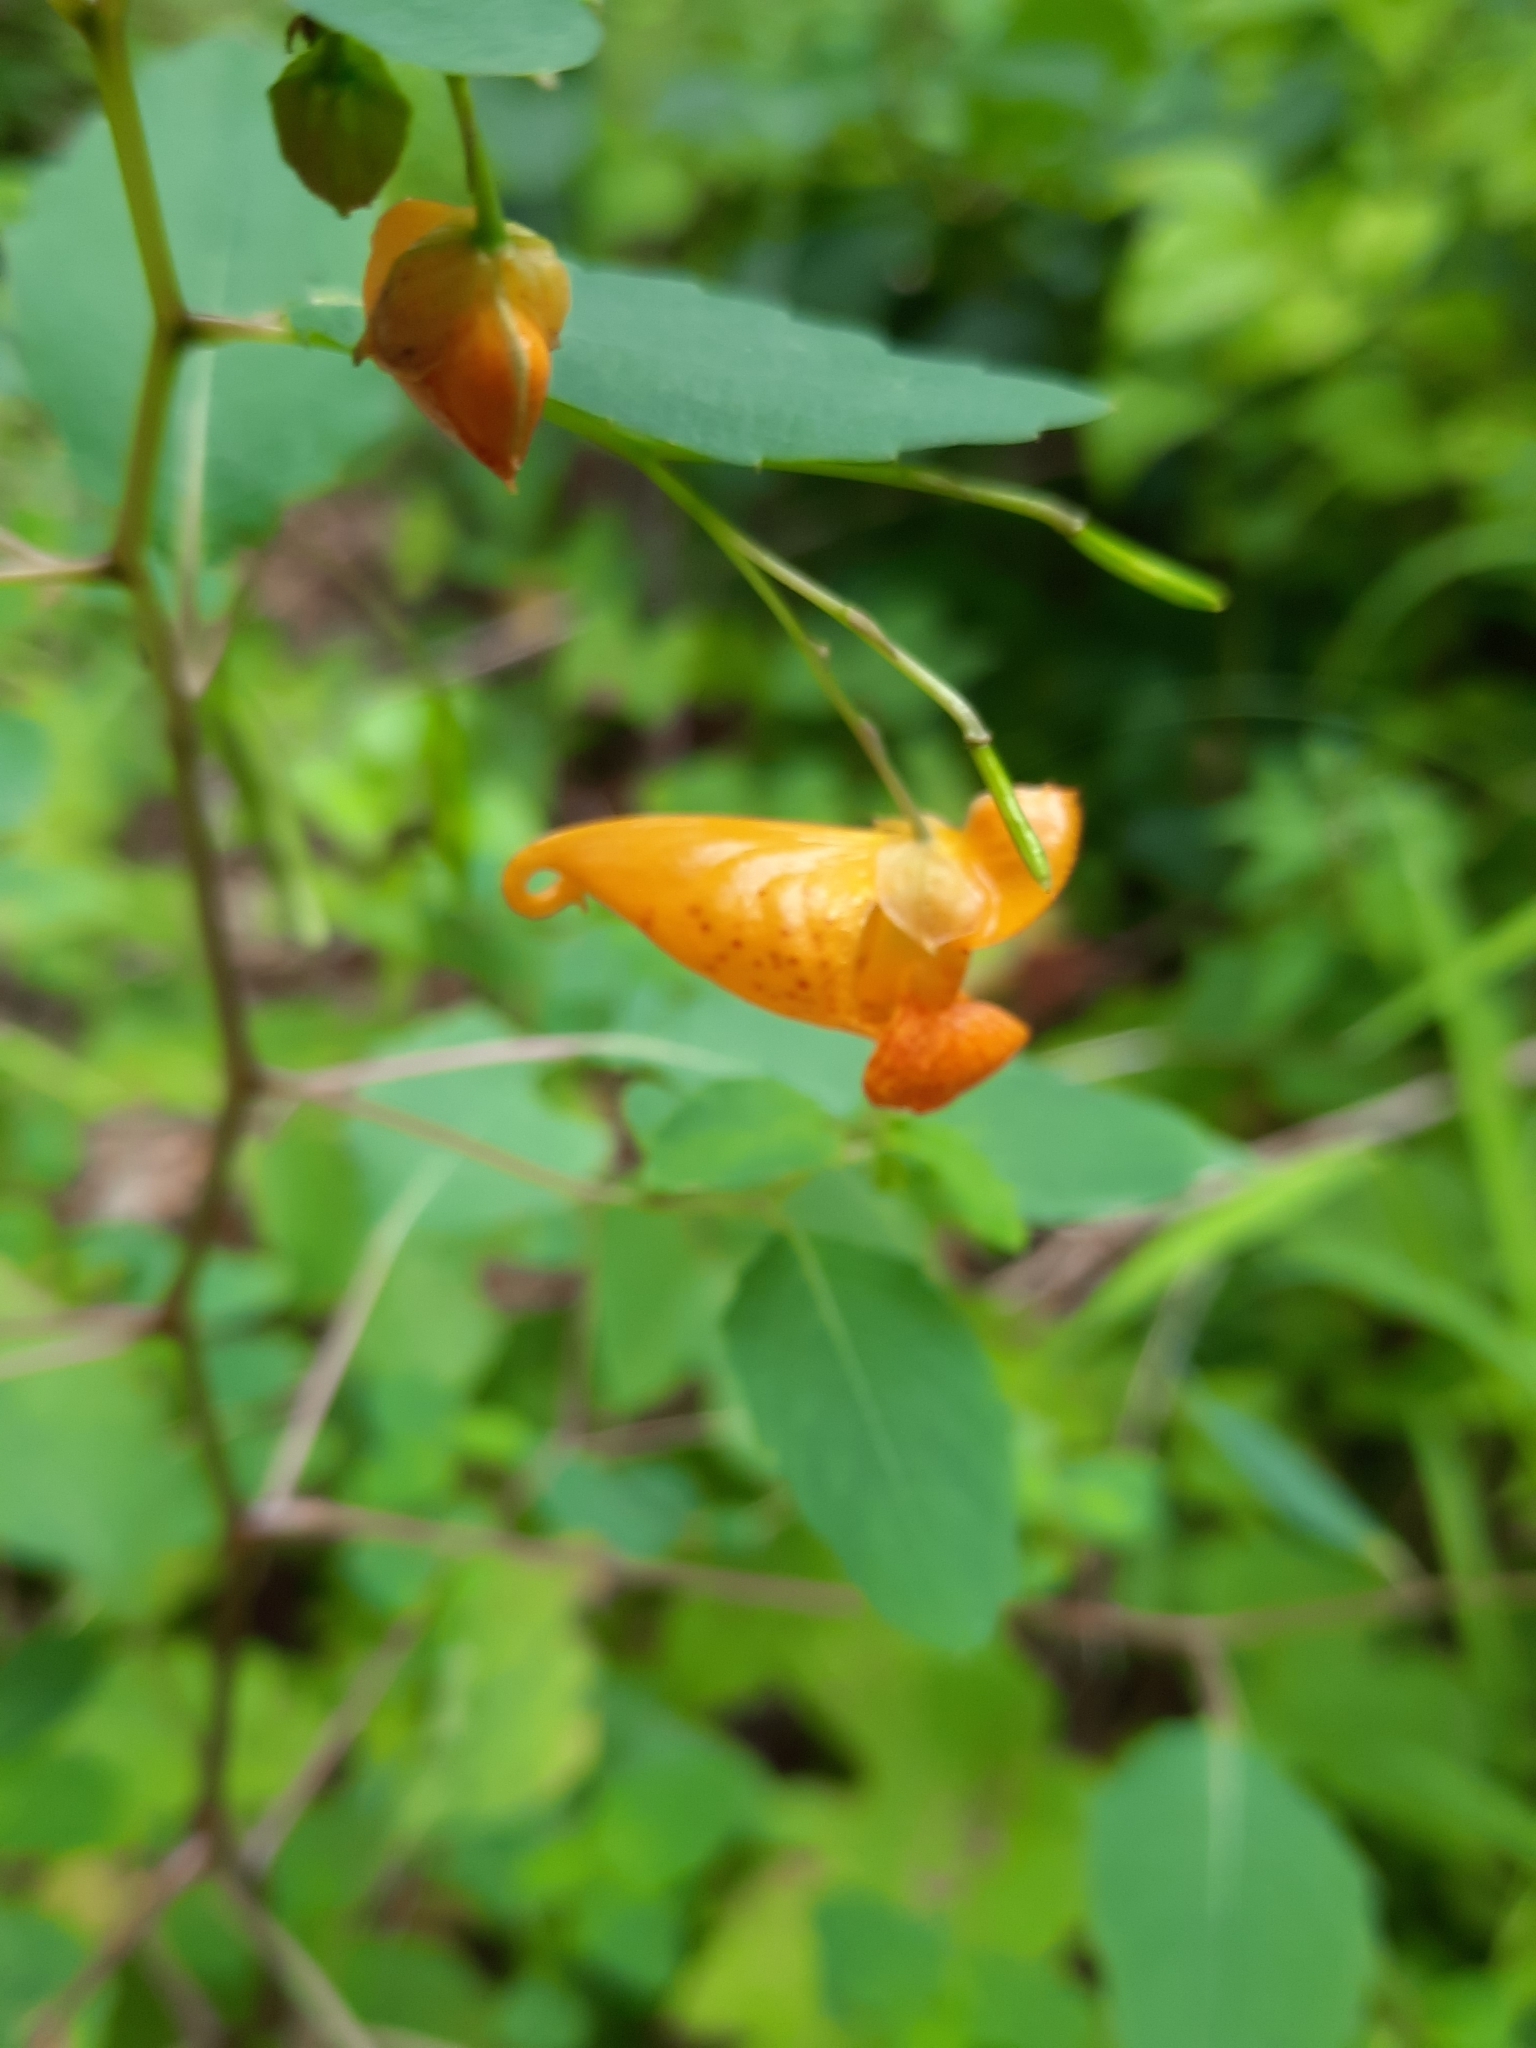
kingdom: Plantae
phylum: Tracheophyta
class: Magnoliopsida
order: Ericales
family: Balsaminaceae
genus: Impatiens
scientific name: Impatiens capensis
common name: Orange balsam
